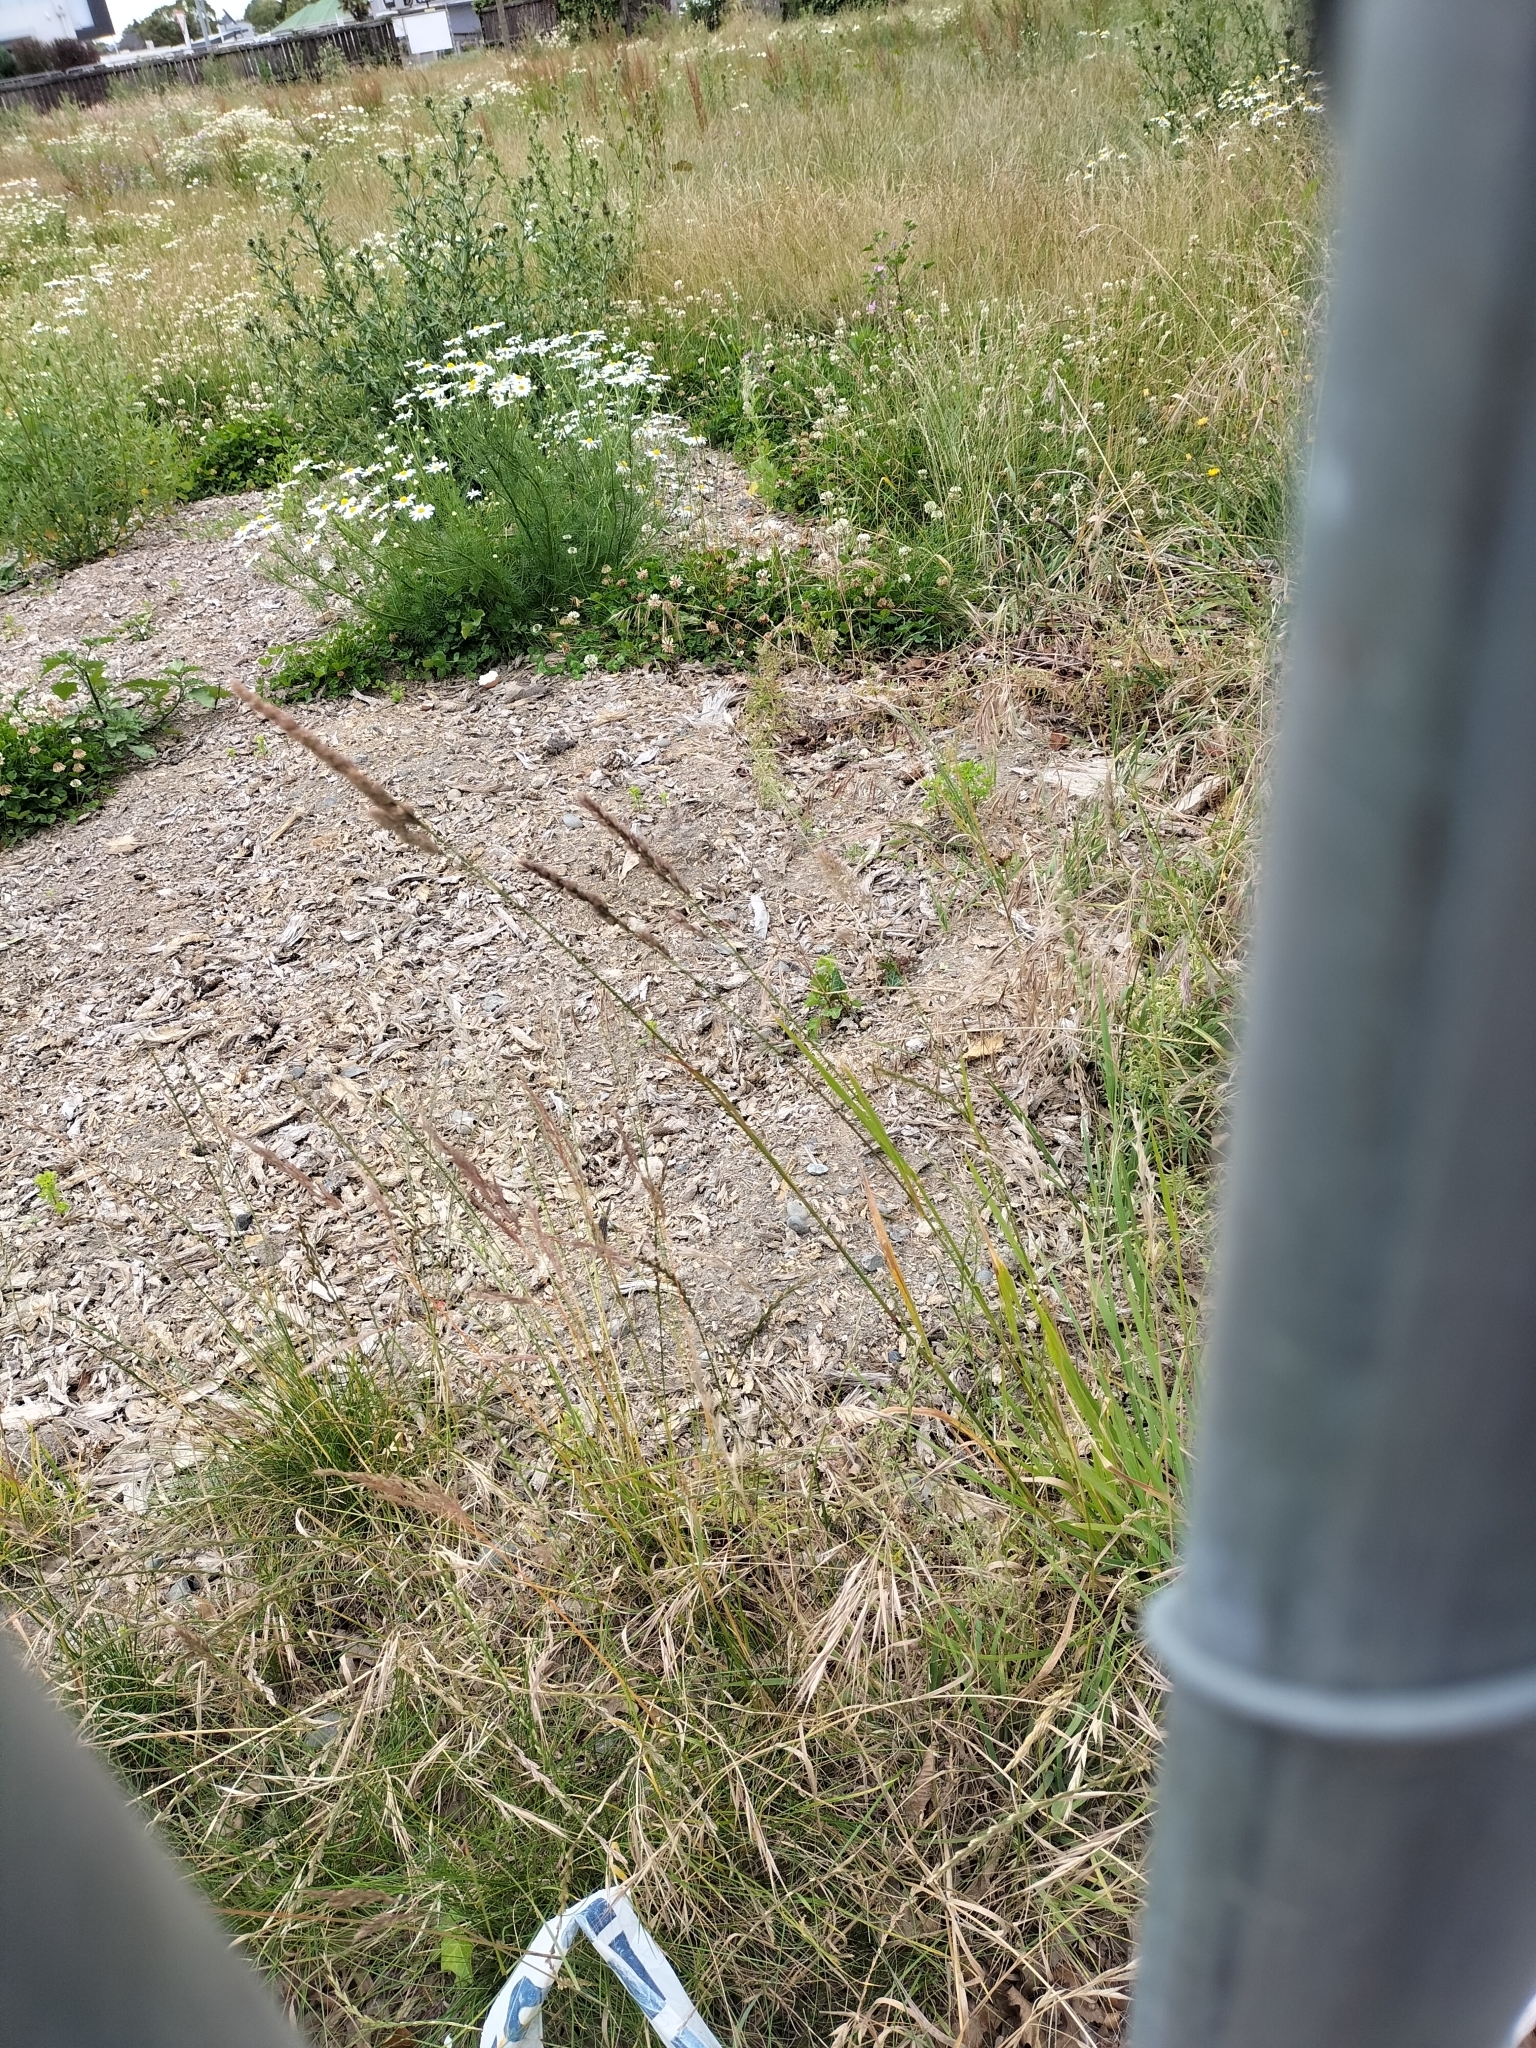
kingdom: Plantae
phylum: Tracheophyta
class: Liliopsida
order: Poales
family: Poaceae
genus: Dactylis
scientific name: Dactylis glomerata
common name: Orchardgrass
